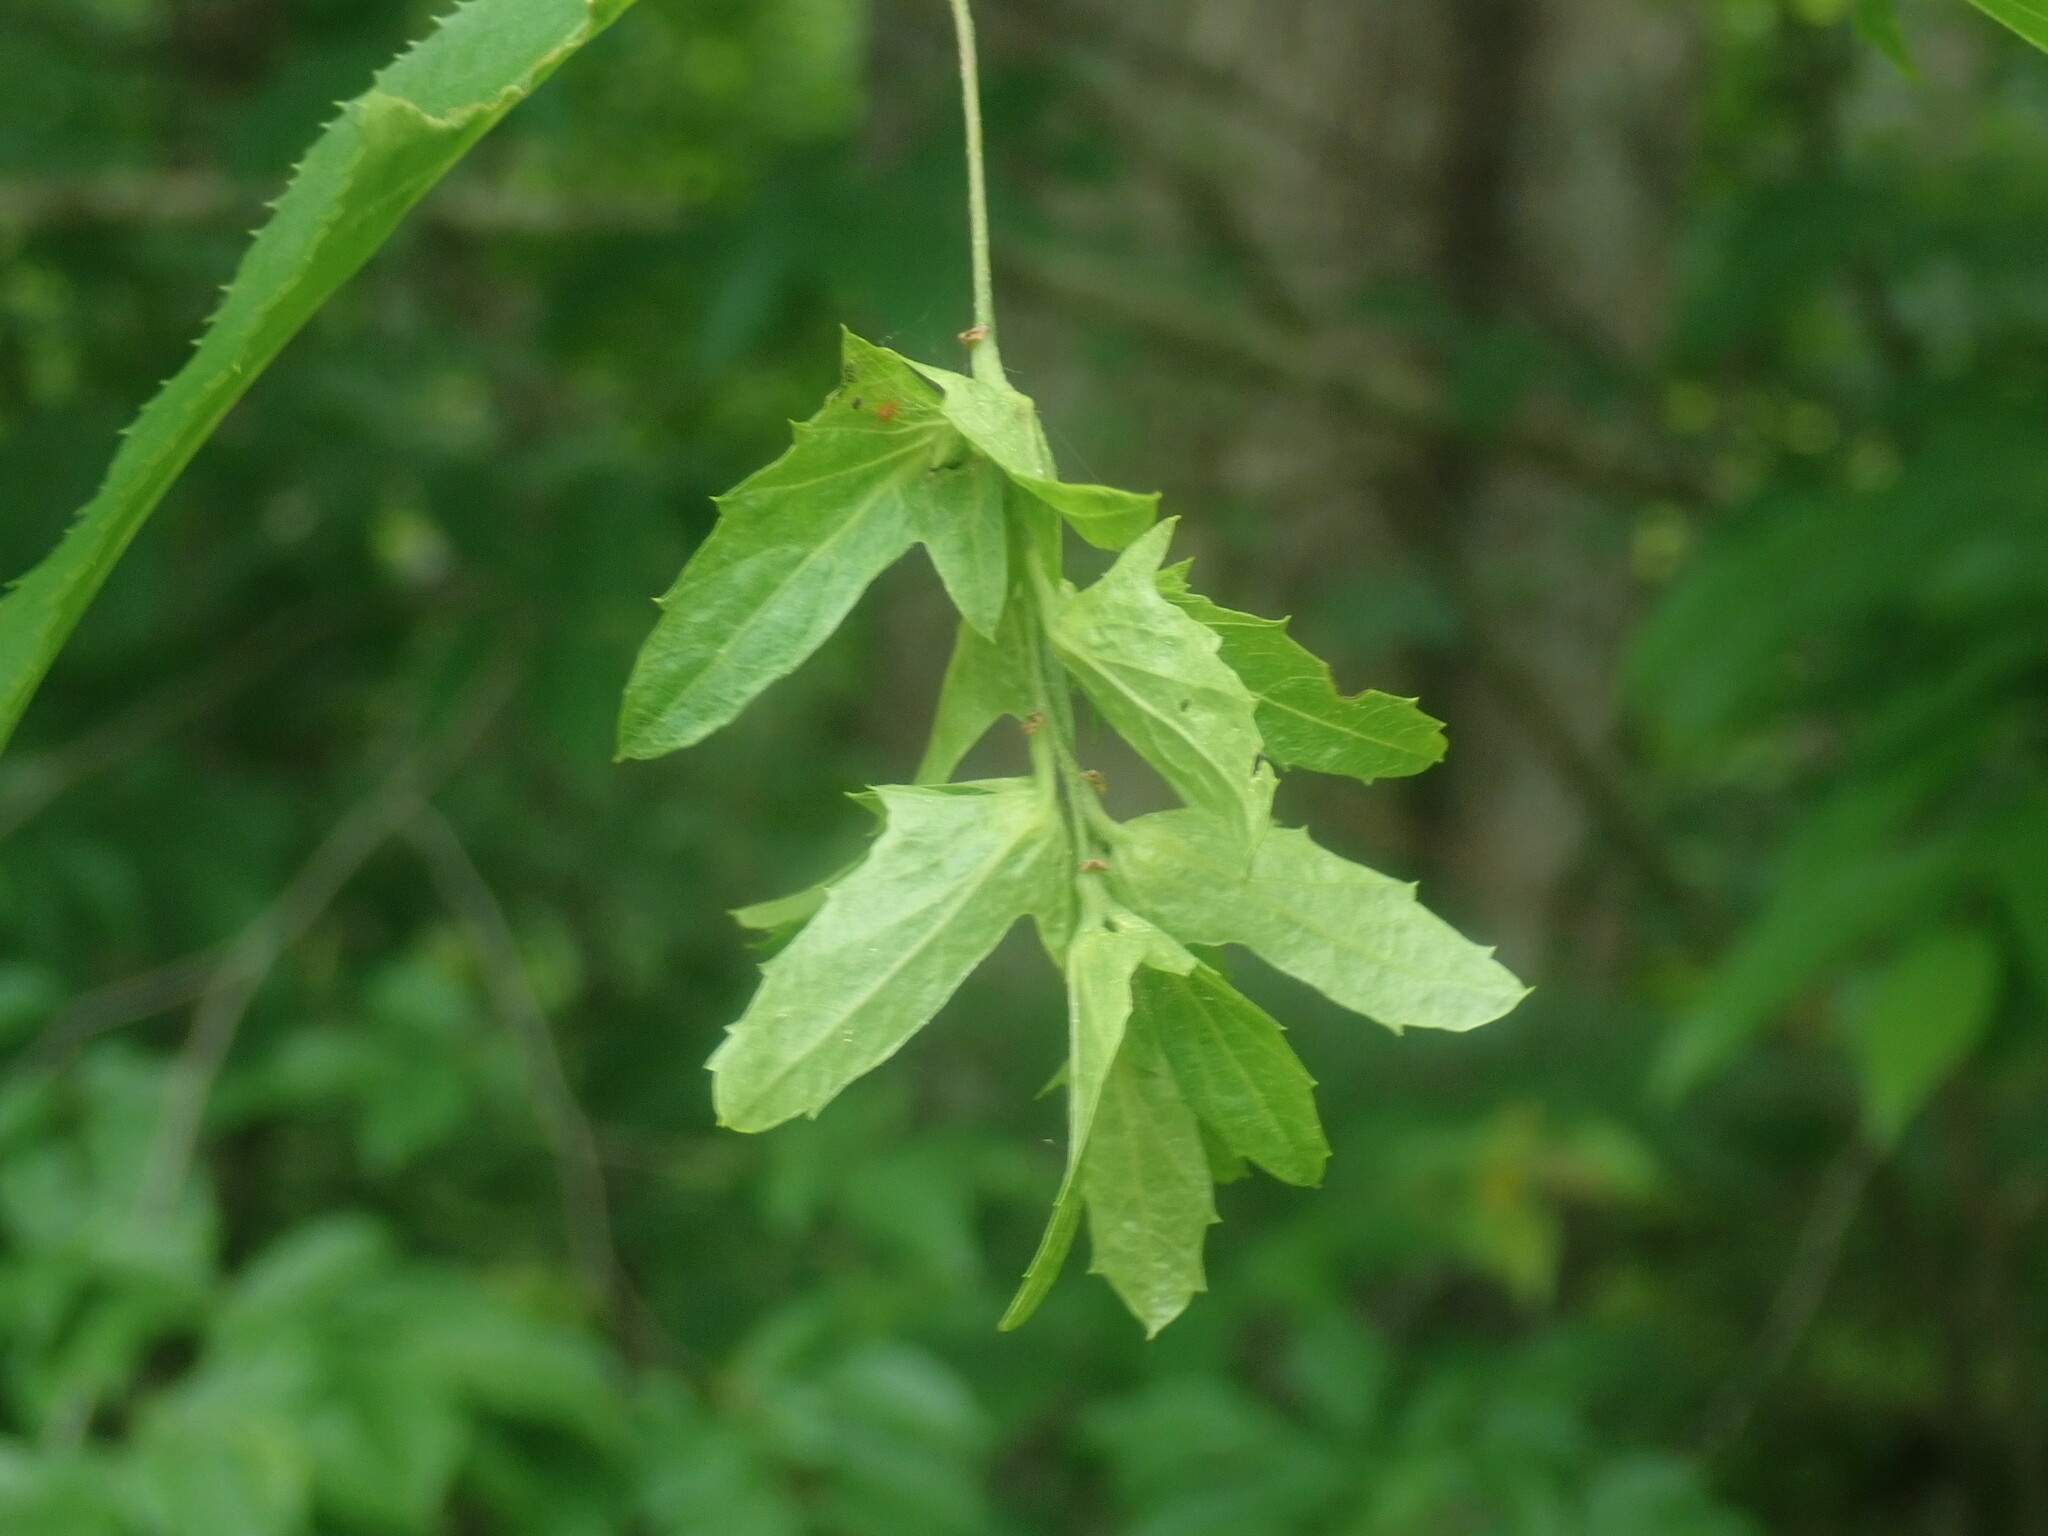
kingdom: Plantae
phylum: Tracheophyta
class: Magnoliopsida
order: Fagales
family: Betulaceae
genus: Carpinus
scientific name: Carpinus caroliniana
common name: American hornbeam
